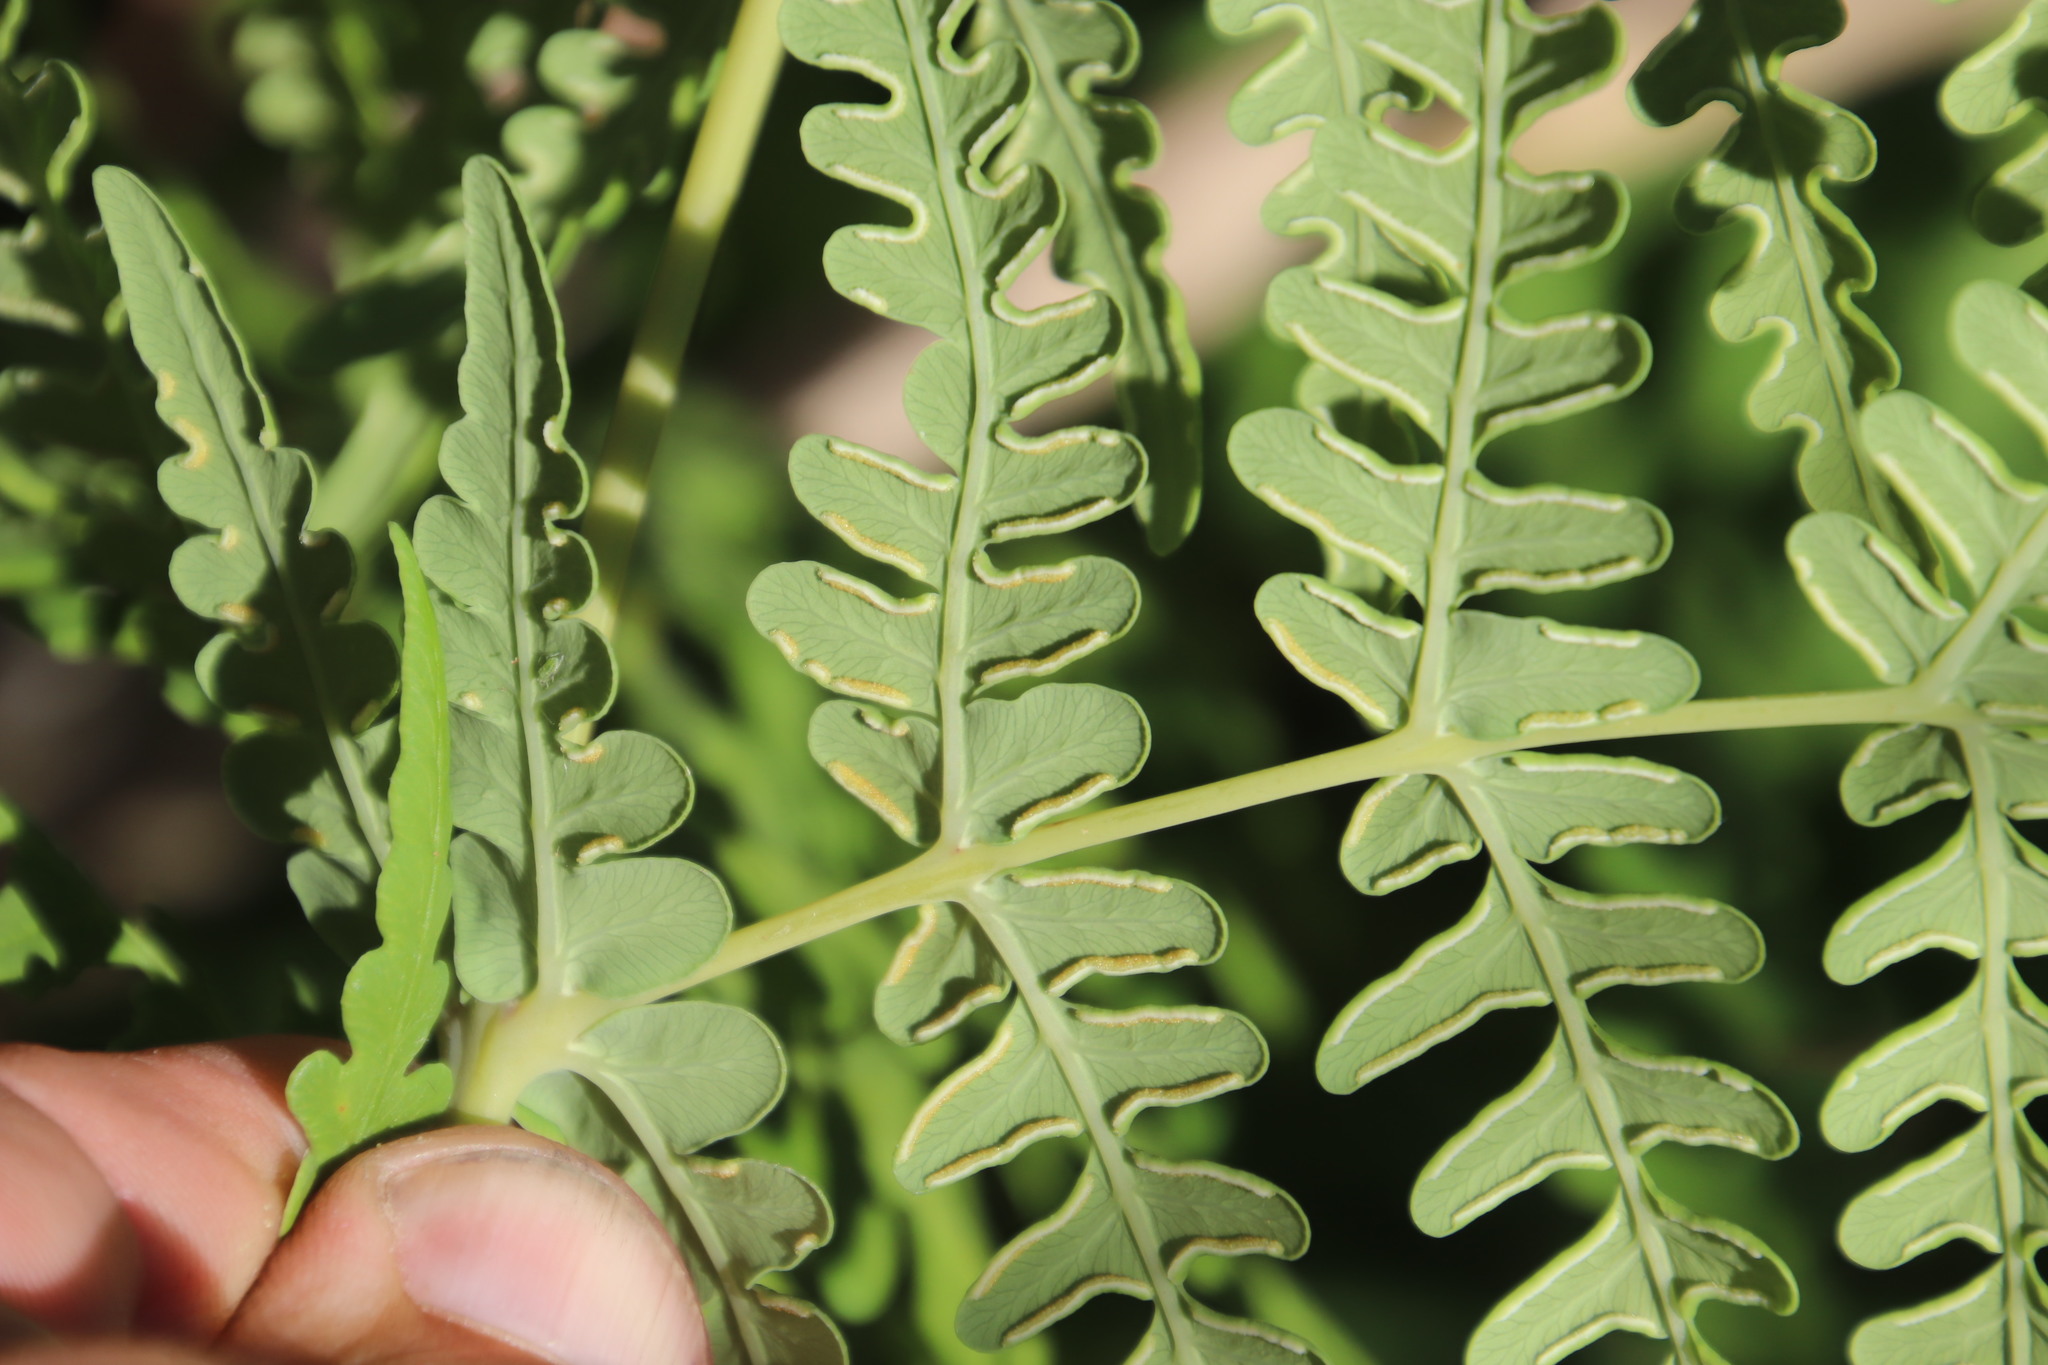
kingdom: Plantae
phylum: Tracheophyta
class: Polypodiopsida
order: Polypodiales
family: Dennstaedtiaceae
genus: Histiopteris
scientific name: Histiopteris incisa
